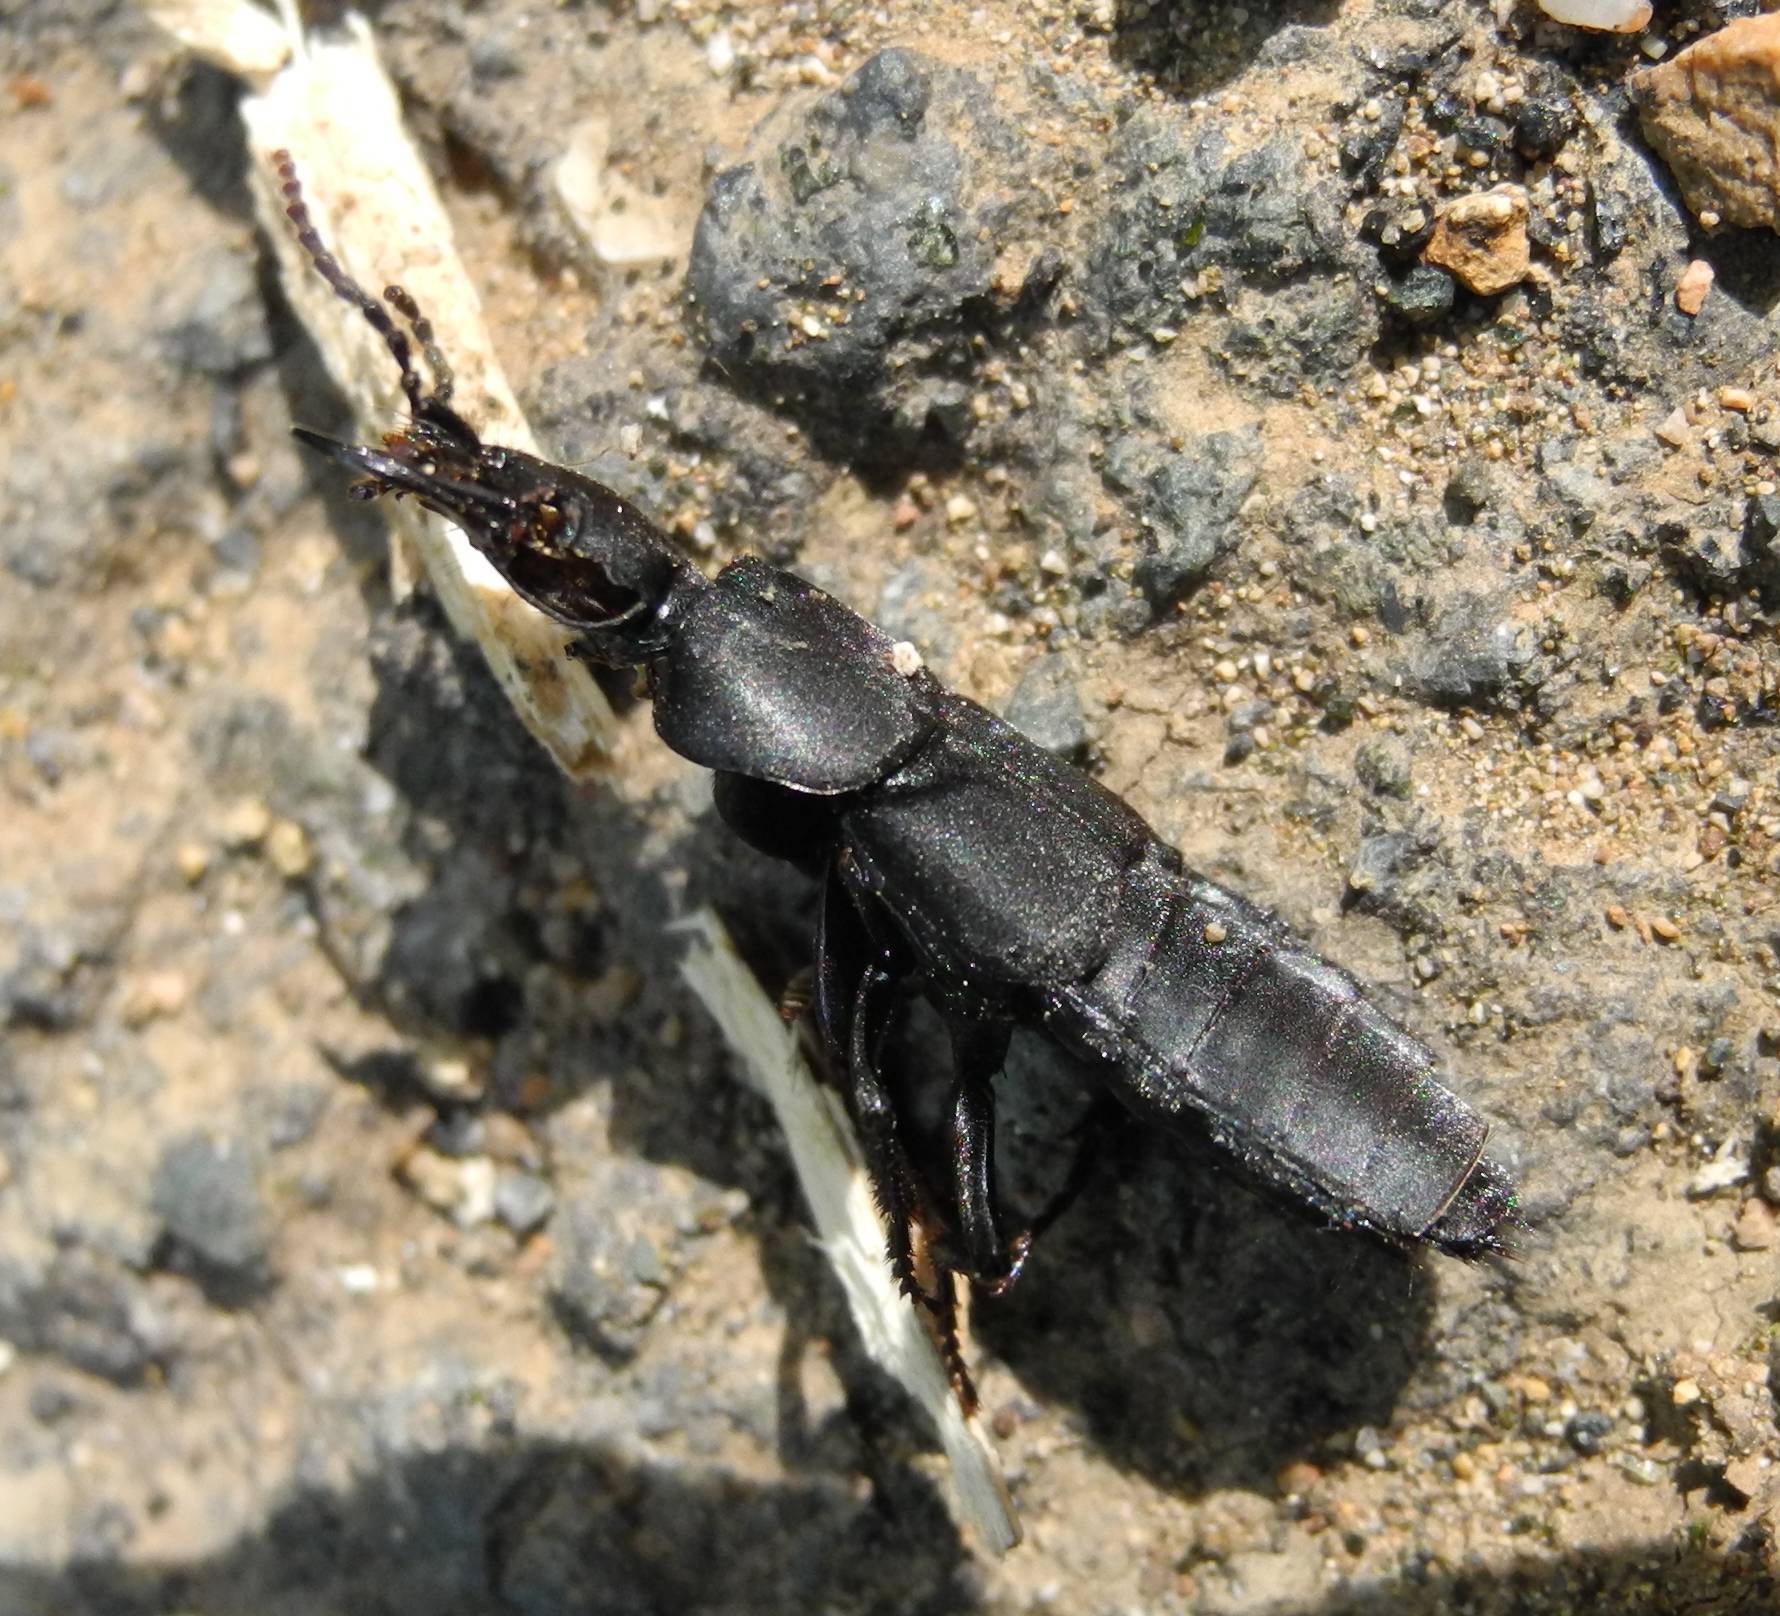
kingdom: Animalia
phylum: Arthropoda
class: Insecta
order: Coleoptera
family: Staphylinidae
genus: Ocypus
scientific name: Ocypus olens
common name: Devil's coach-horse
